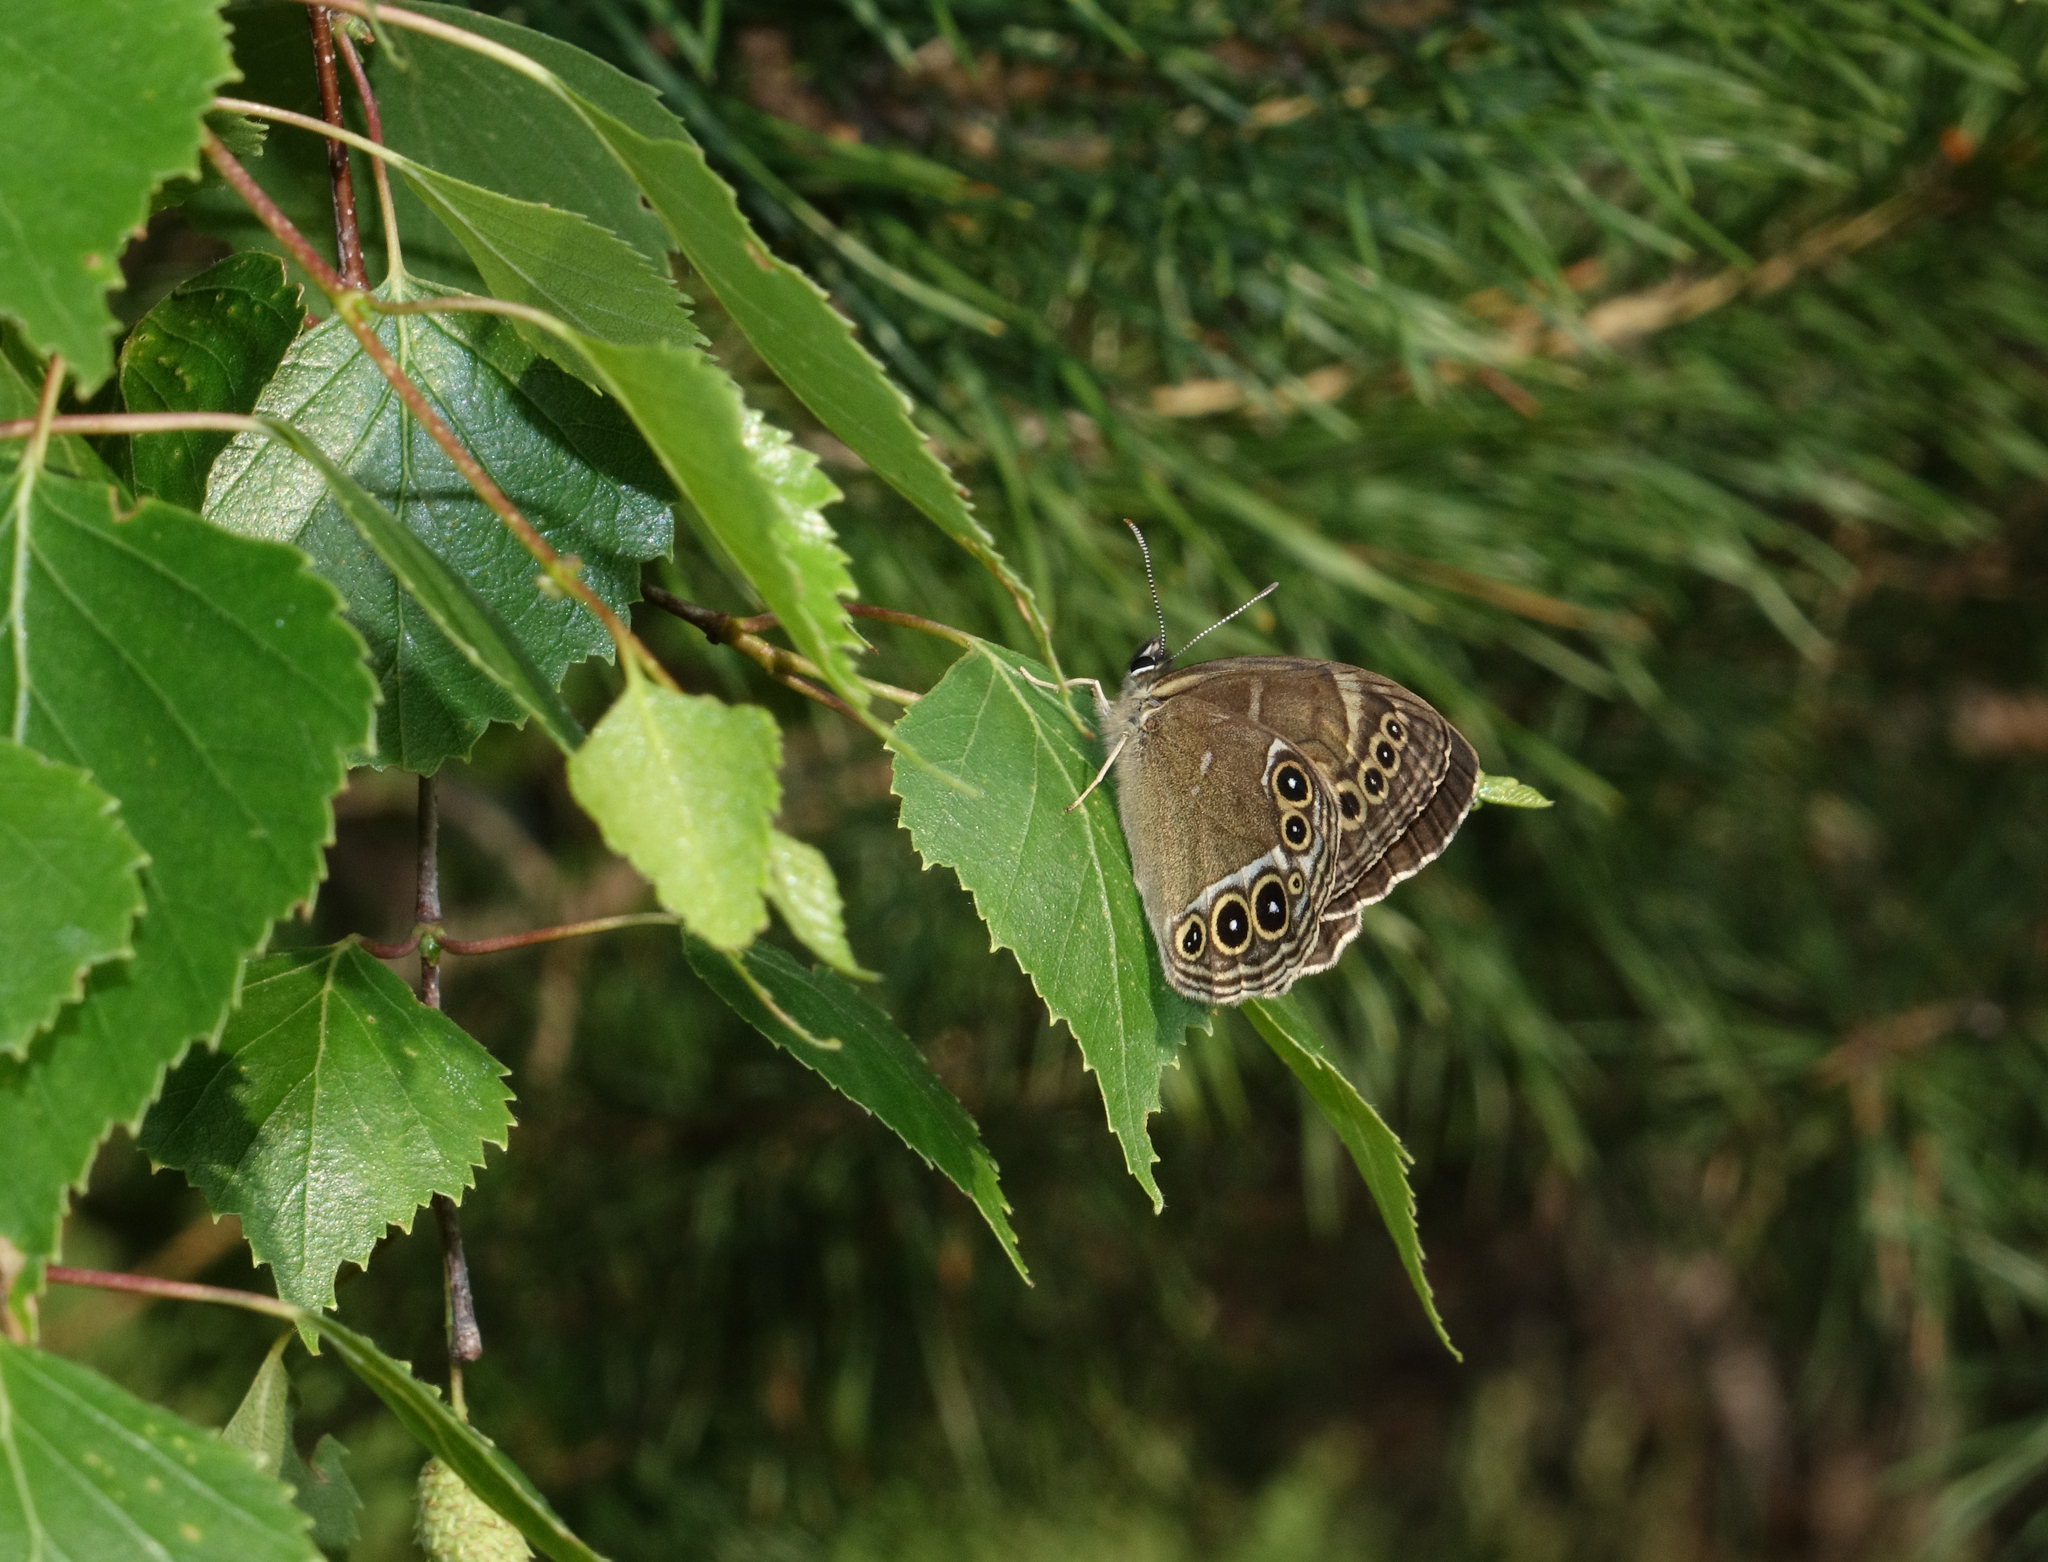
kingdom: Animalia
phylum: Arthropoda
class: Insecta
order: Lepidoptera
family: Nymphalidae
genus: Pararge
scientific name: Pararge Lopinga achine
